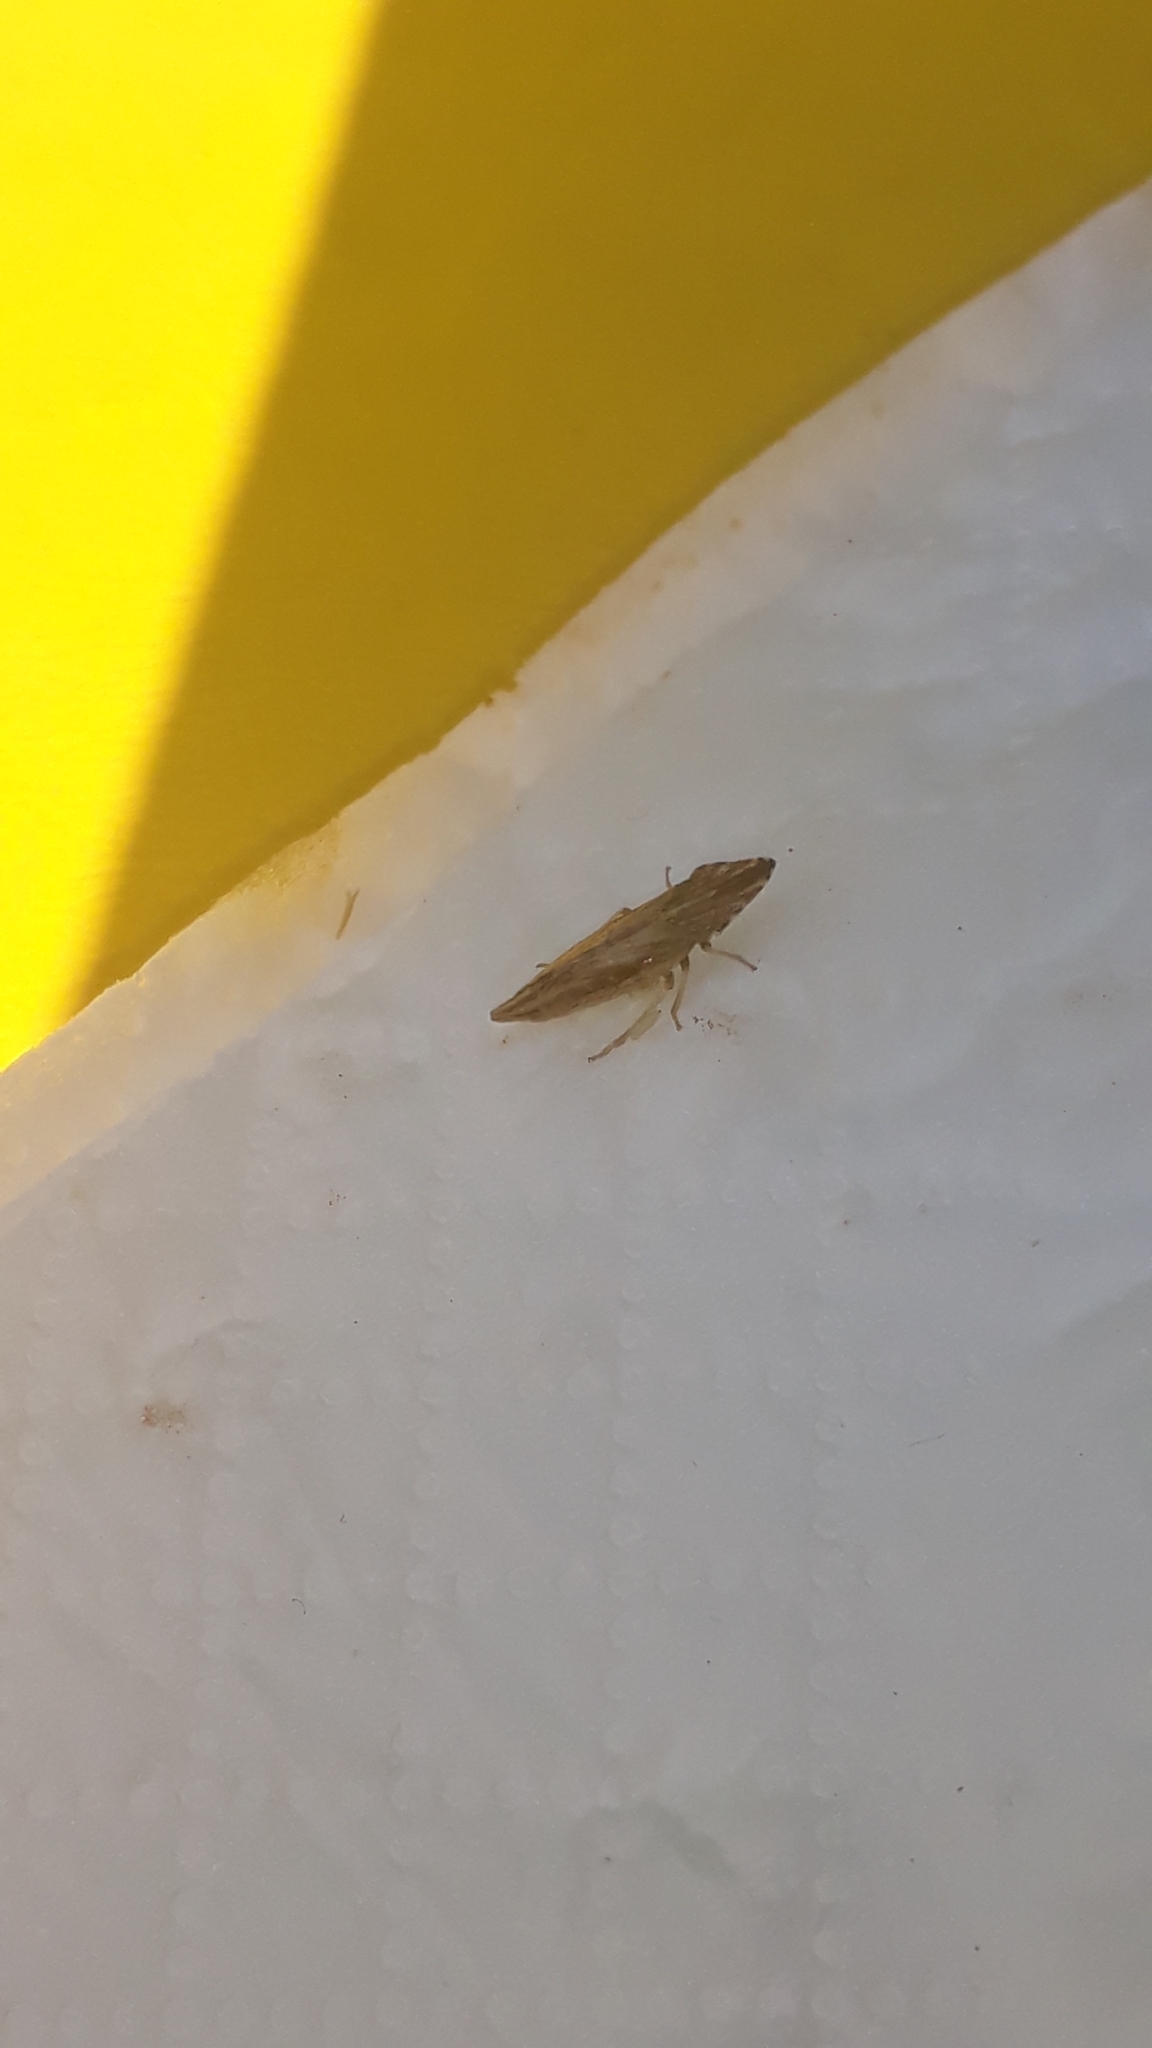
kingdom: Animalia
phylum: Arthropoda
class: Insecta
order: Hemiptera
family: Cicadellidae
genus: Eupelix
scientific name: Eupelix cuspidata
